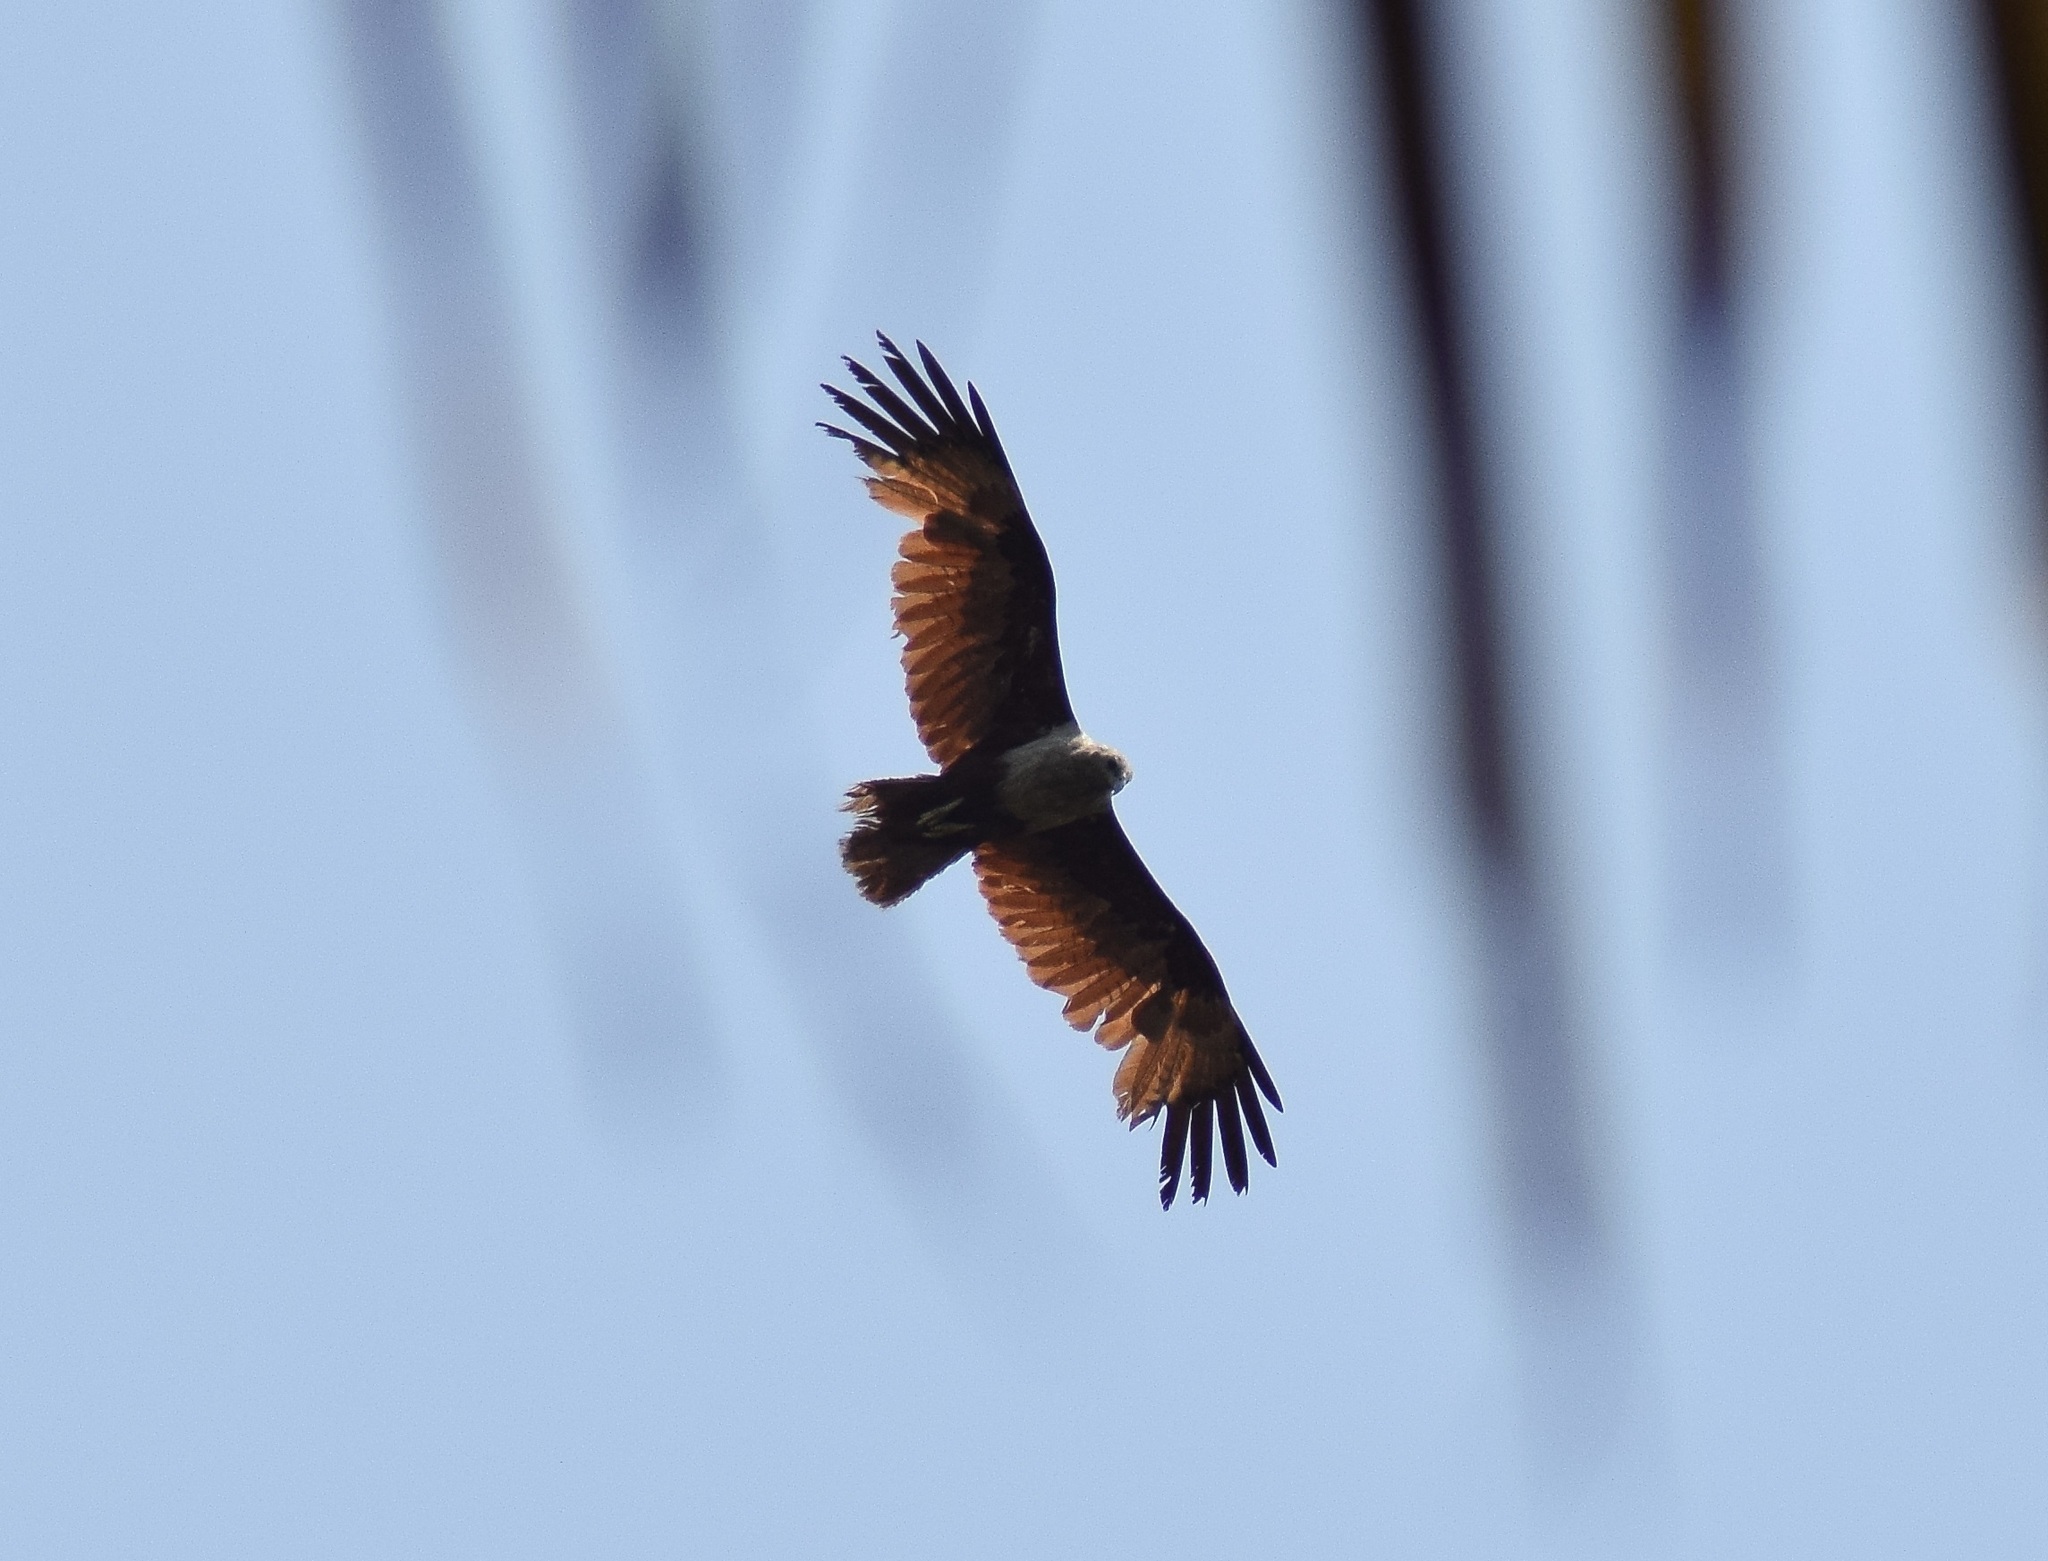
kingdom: Animalia
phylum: Chordata
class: Aves
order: Accipitriformes
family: Accipitridae
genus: Haliastur
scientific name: Haliastur indus
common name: Brahminy kite
